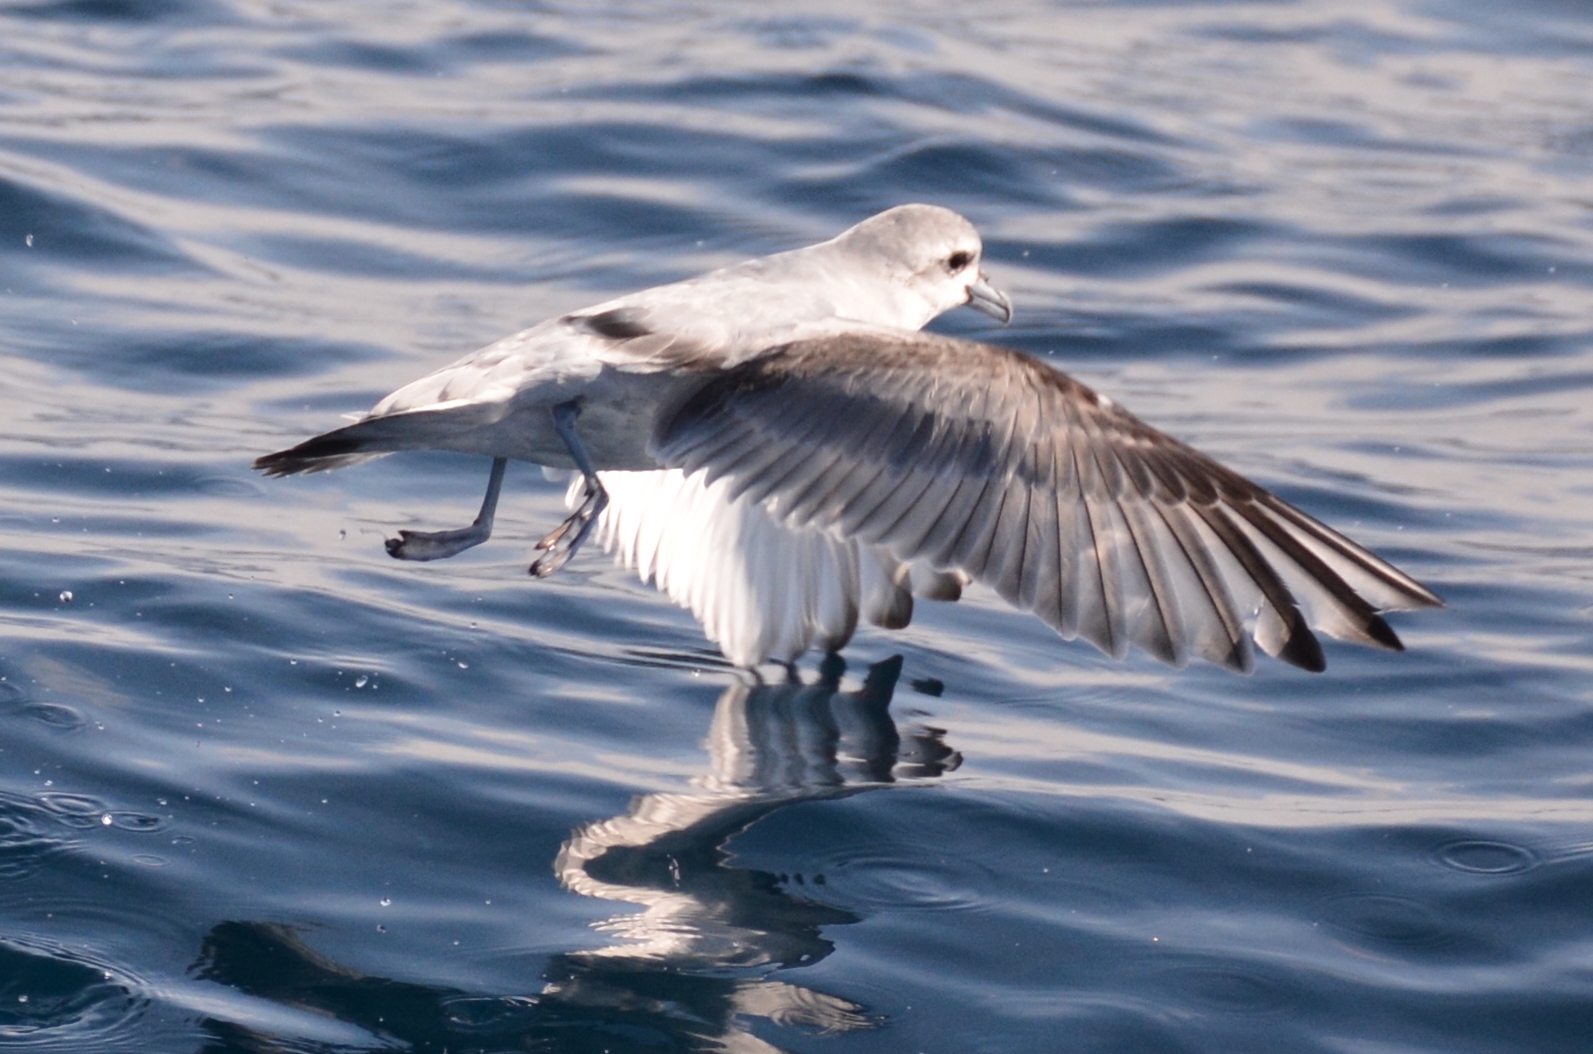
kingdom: Animalia
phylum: Chordata
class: Aves
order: Procellariiformes
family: Procellariidae
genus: Pachyptila
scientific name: Pachyptila turtur
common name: Fairy prion
